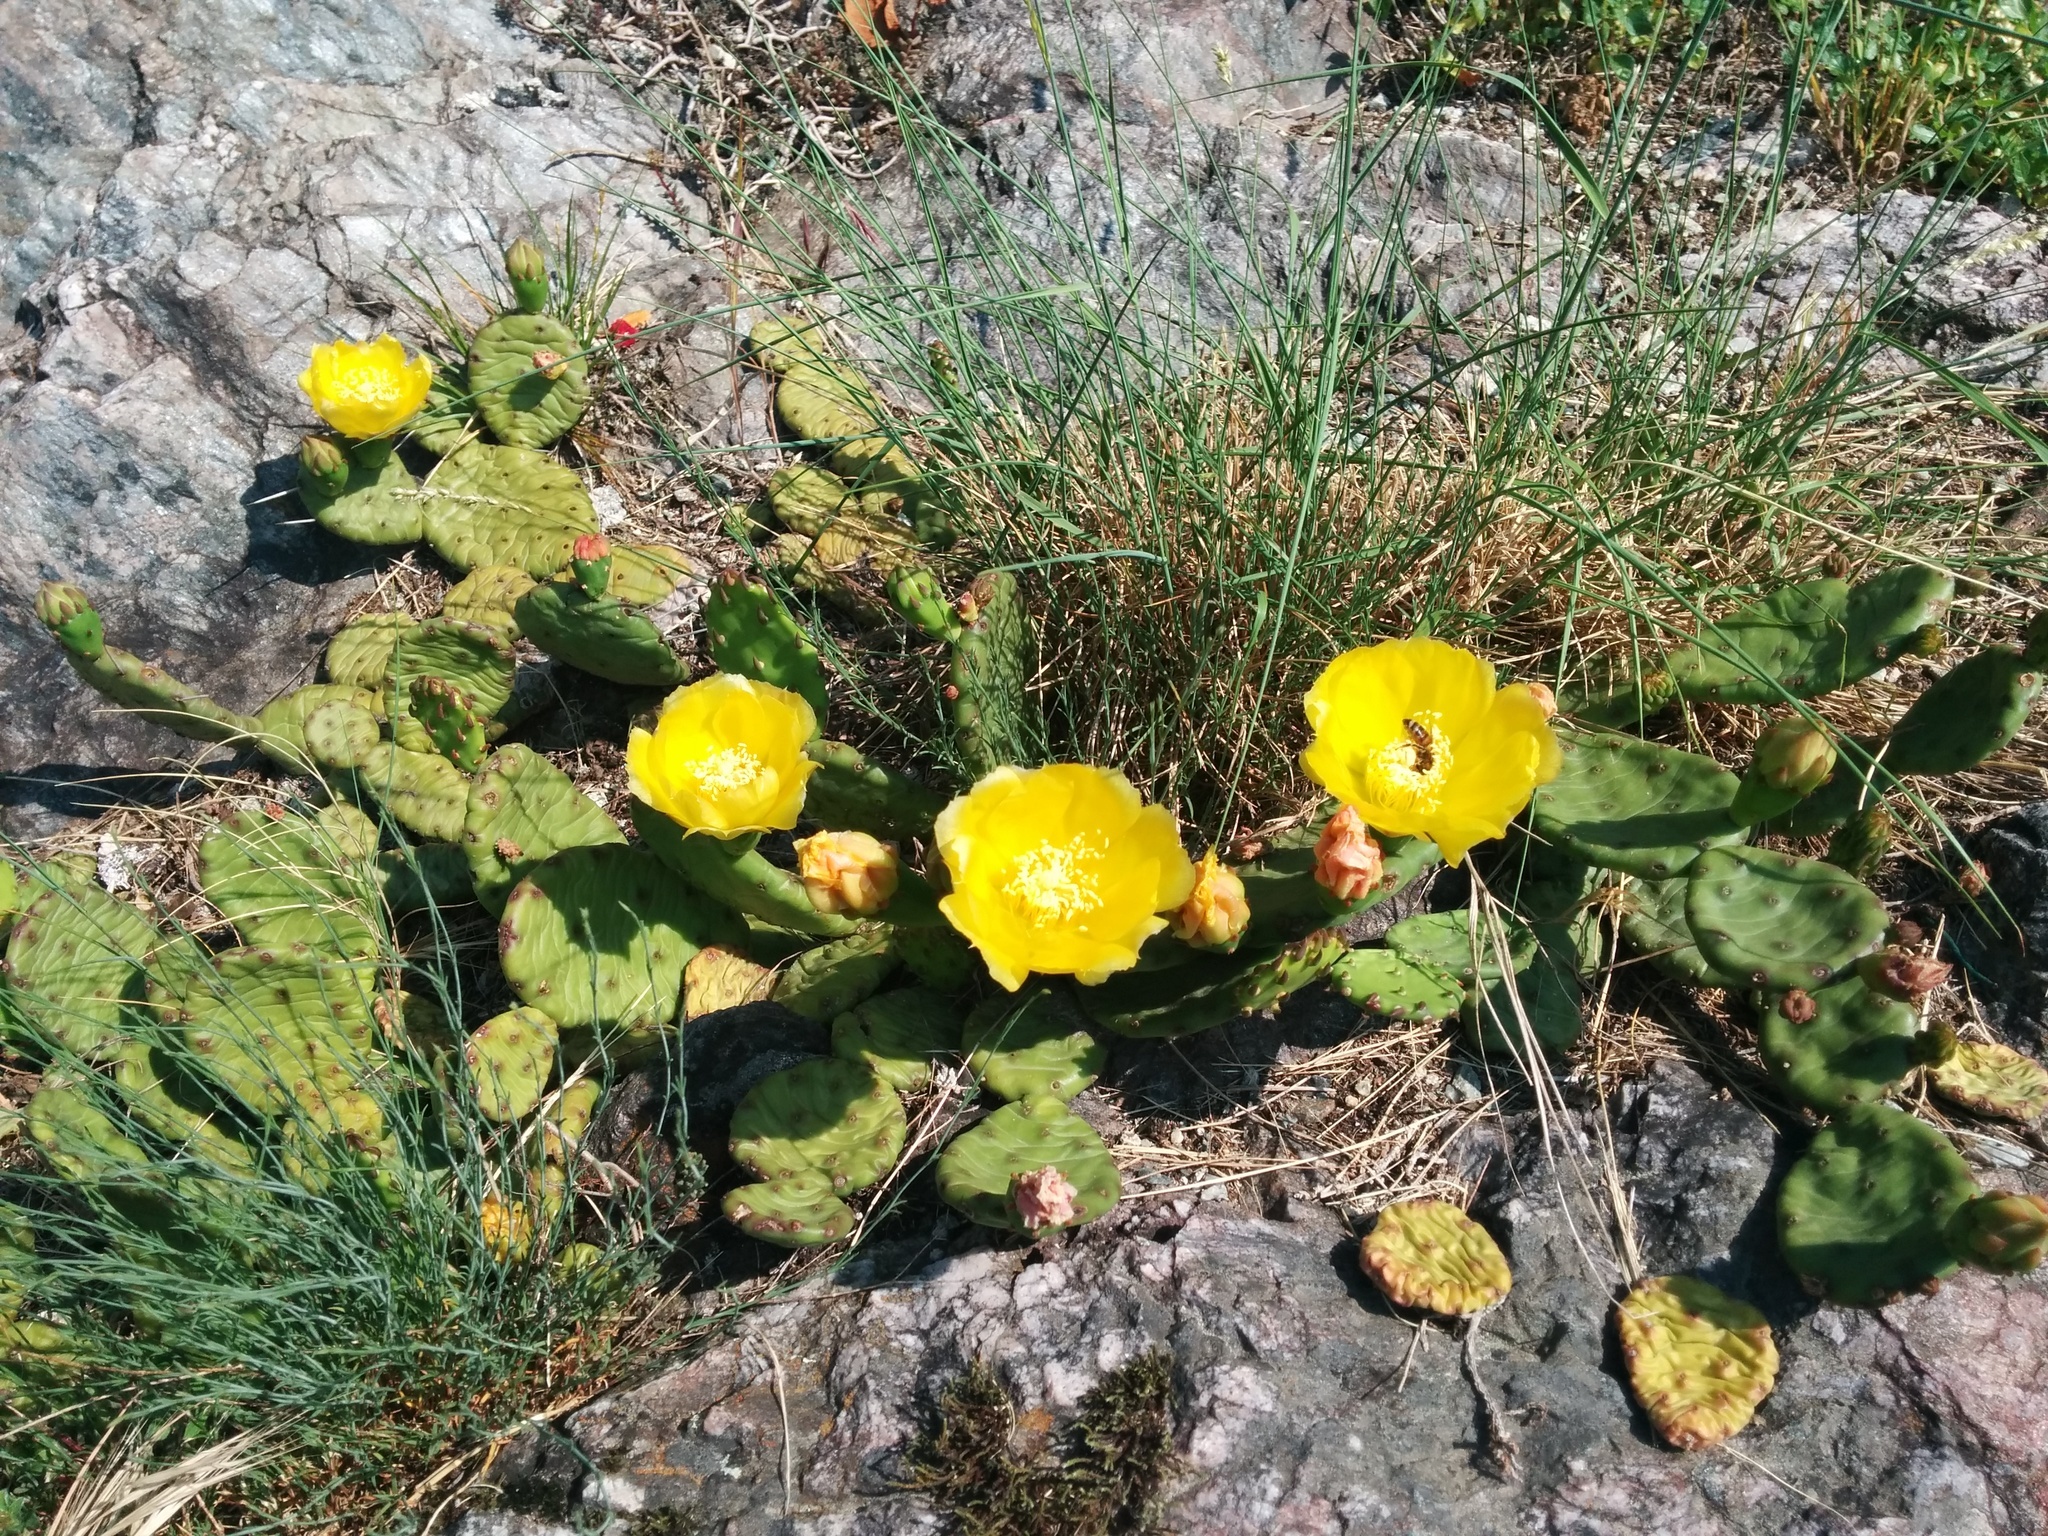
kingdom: Plantae
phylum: Tracheophyta
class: Magnoliopsida
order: Caryophyllales
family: Cactaceae
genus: Opuntia
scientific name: Opuntia humifusa
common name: Eastern prickly-pear
